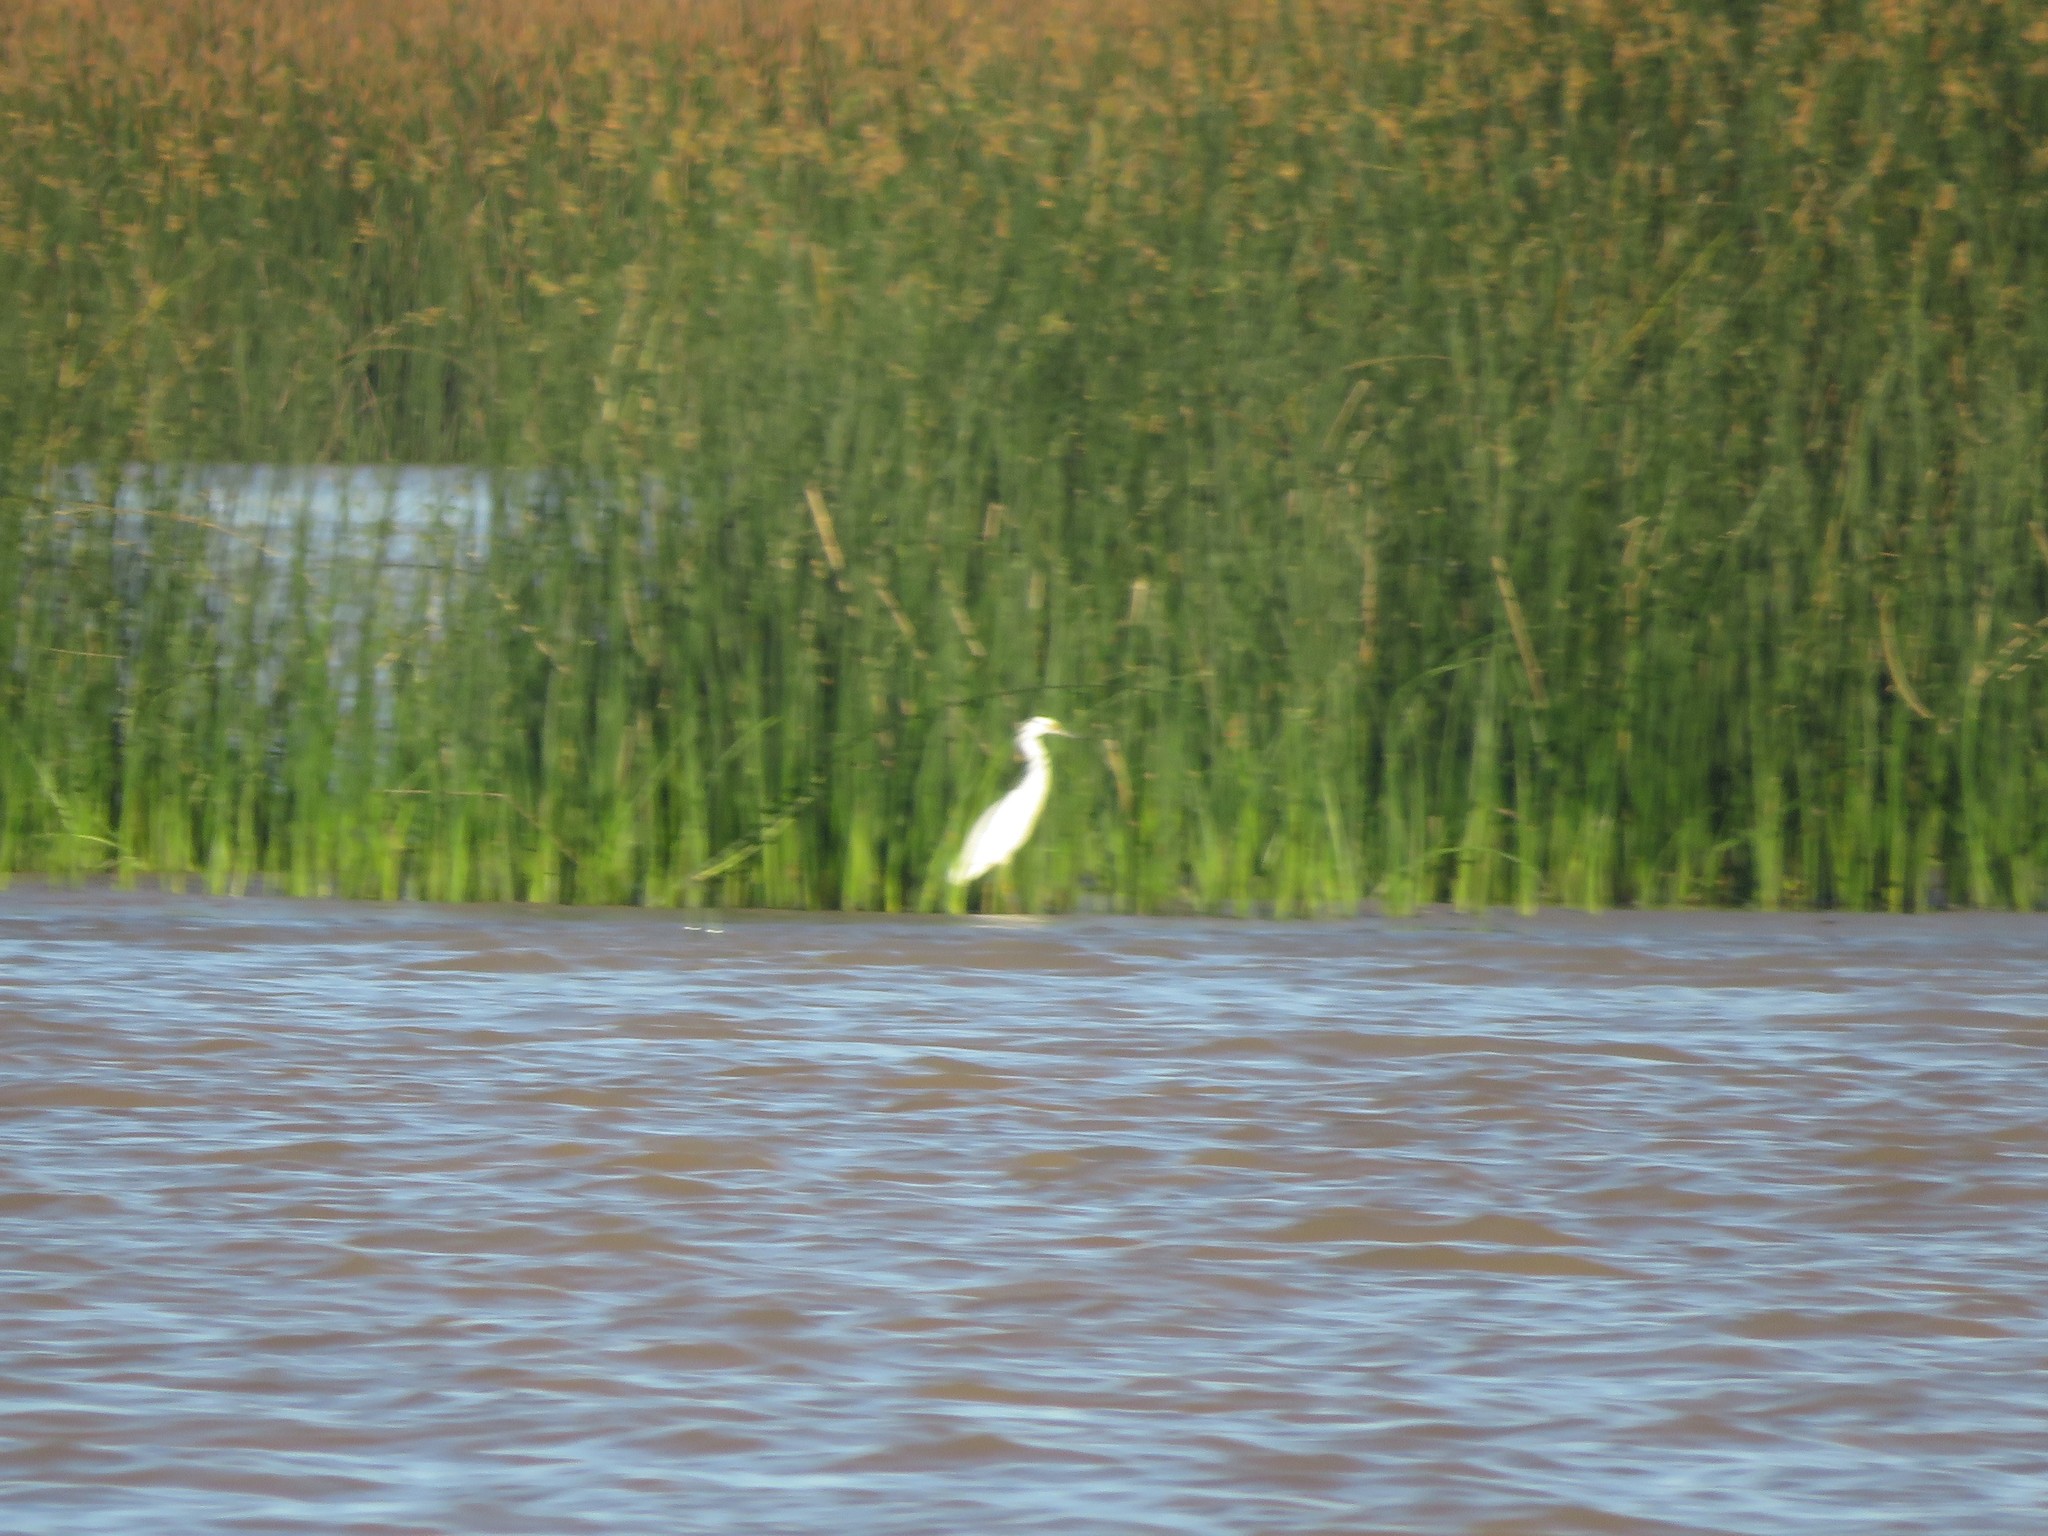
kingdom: Animalia
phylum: Chordata
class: Aves
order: Pelecaniformes
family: Ardeidae
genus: Ardea
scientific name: Ardea alba
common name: Great egret
